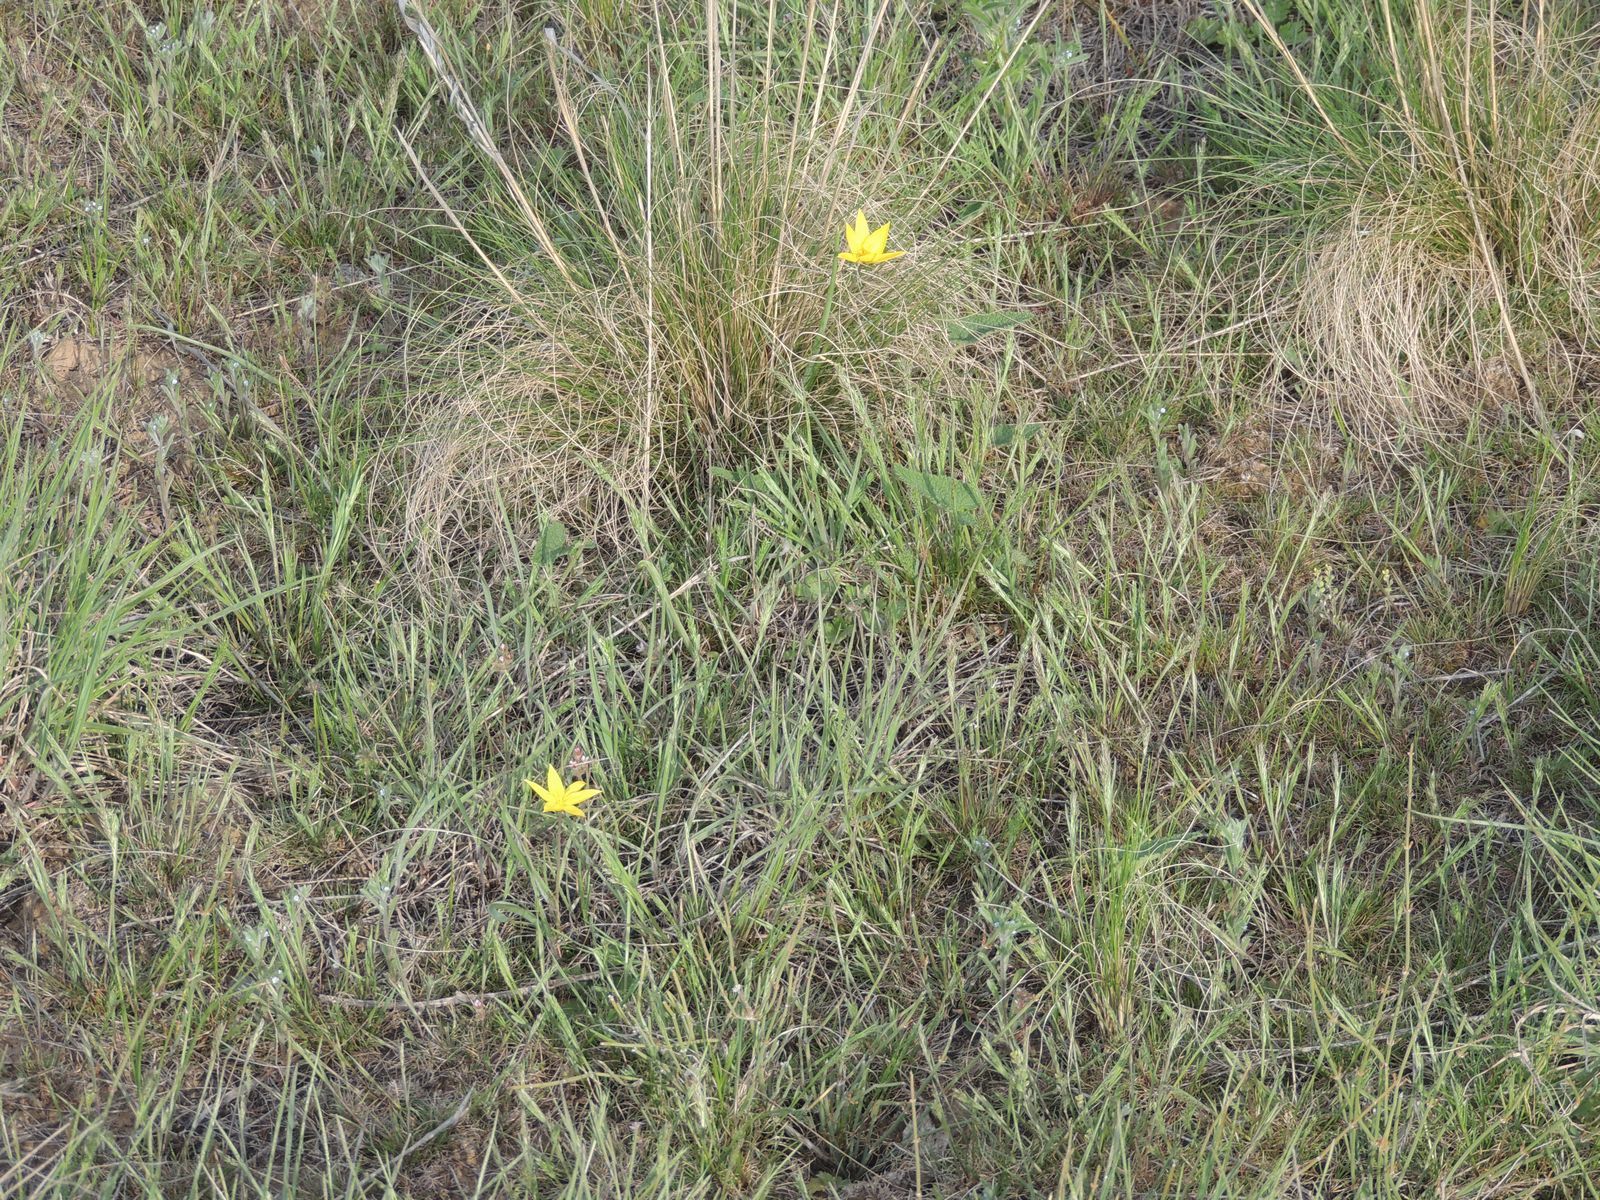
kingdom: Plantae
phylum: Tracheophyta
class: Magnoliopsida
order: Brassicales
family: Brassicaceae
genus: Alyssum
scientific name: Alyssum turkestanicum
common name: Desert alyssum
